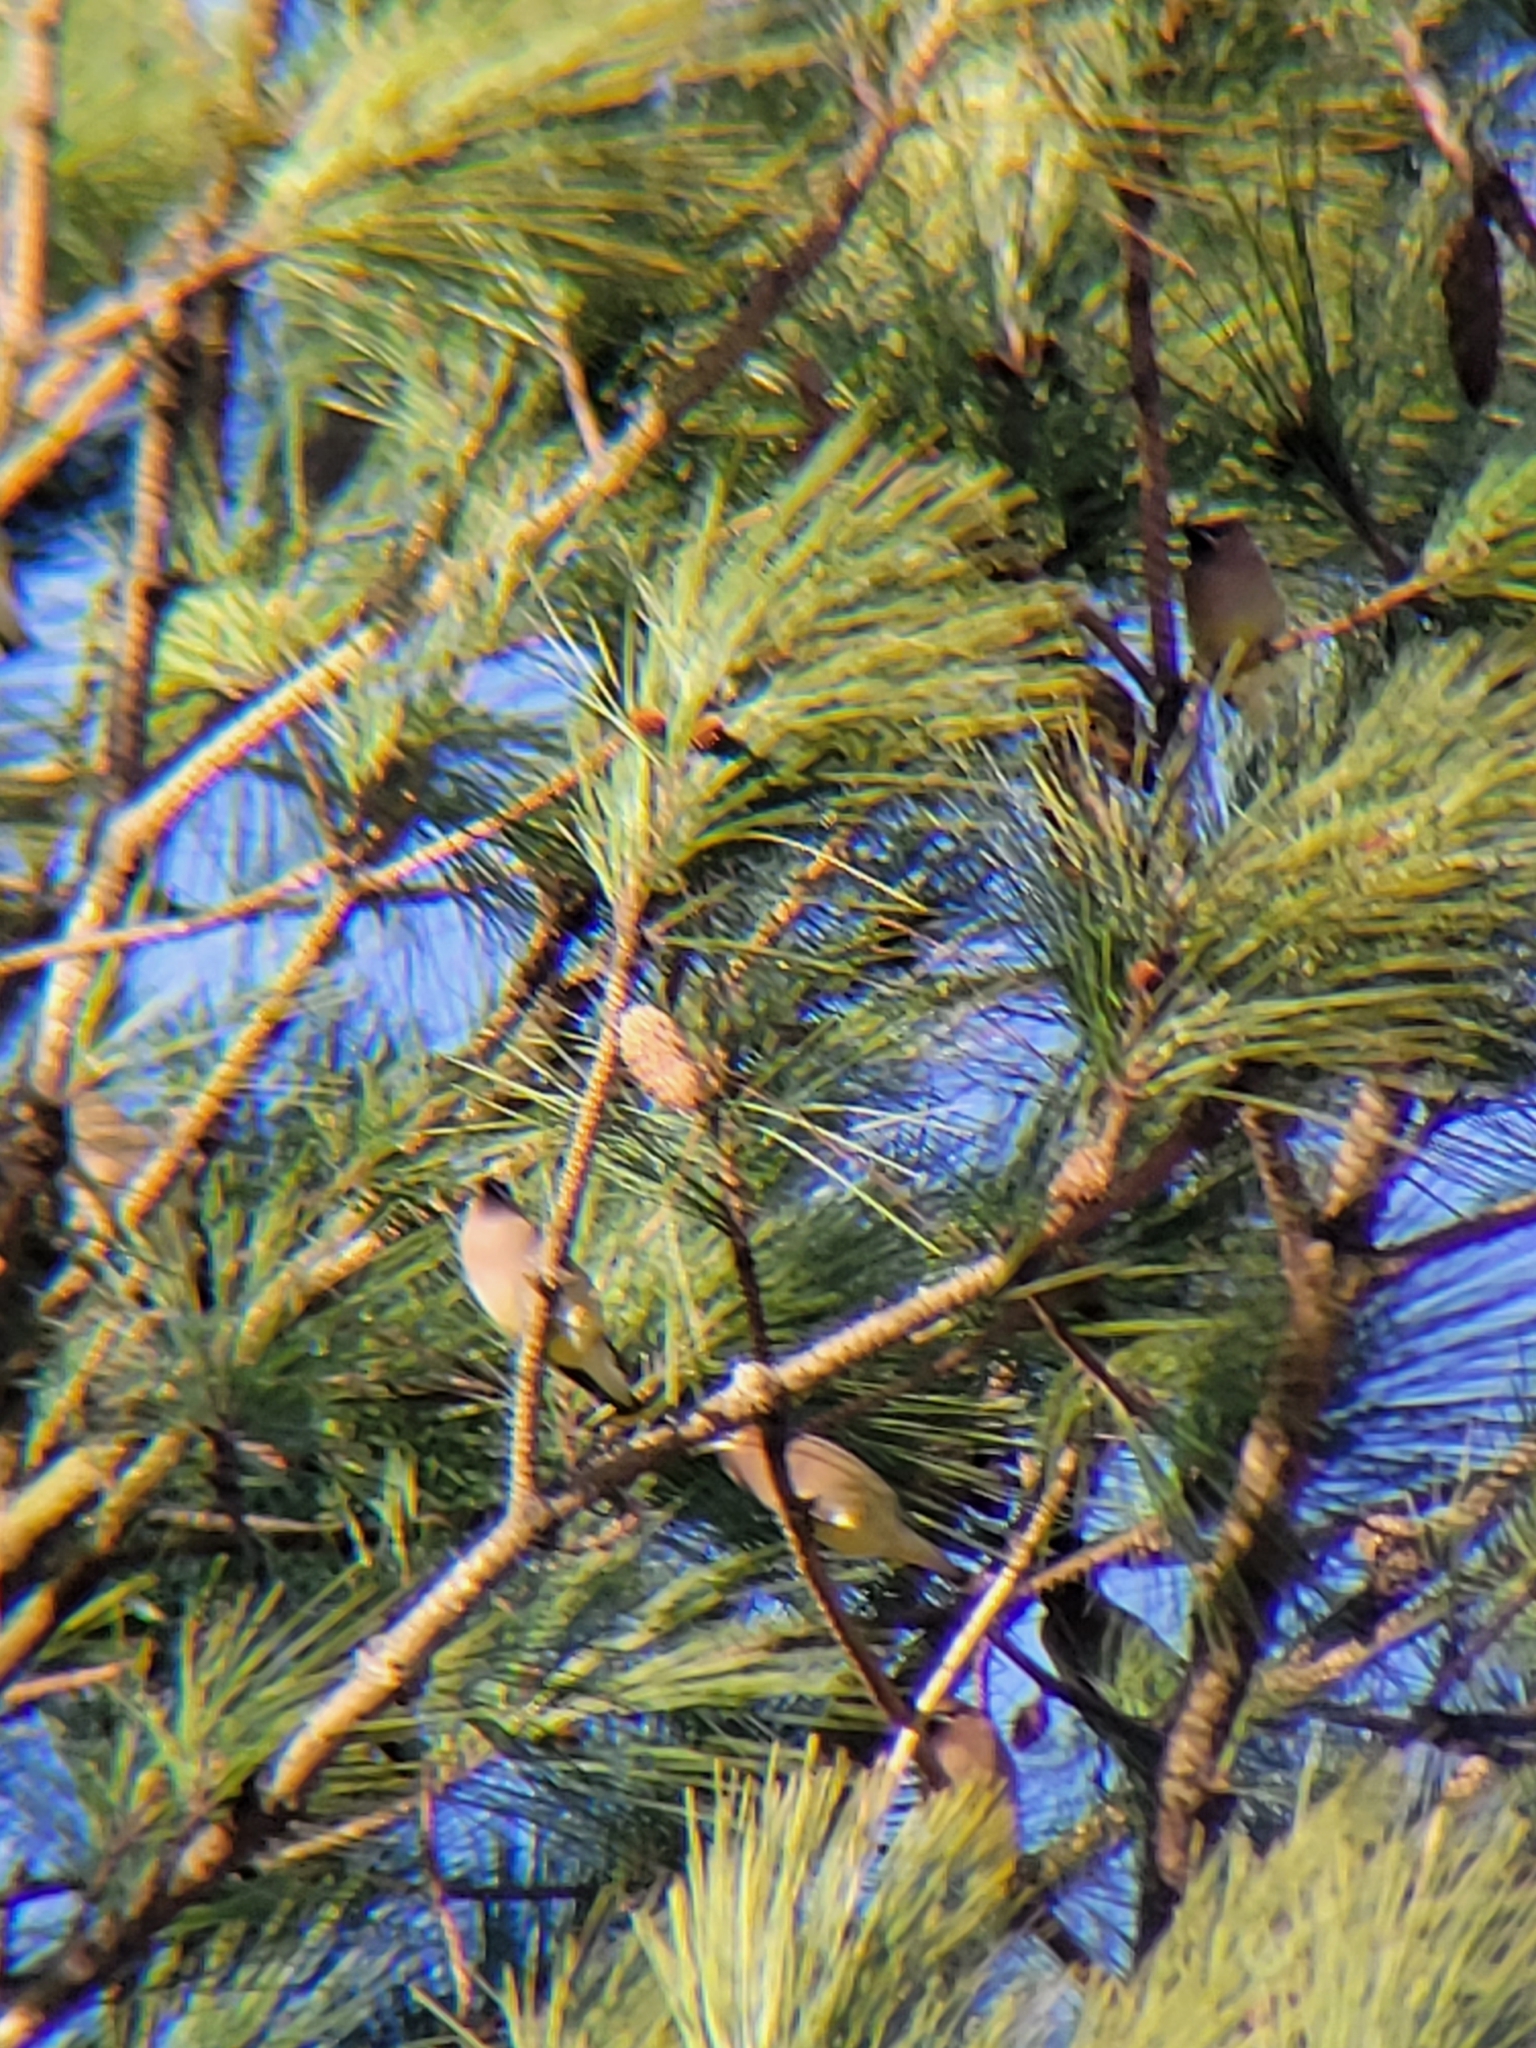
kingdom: Animalia
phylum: Chordata
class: Aves
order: Passeriformes
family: Bombycillidae
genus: Bombycilla
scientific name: Bombycilla cedrorum
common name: Cedar waxwing
